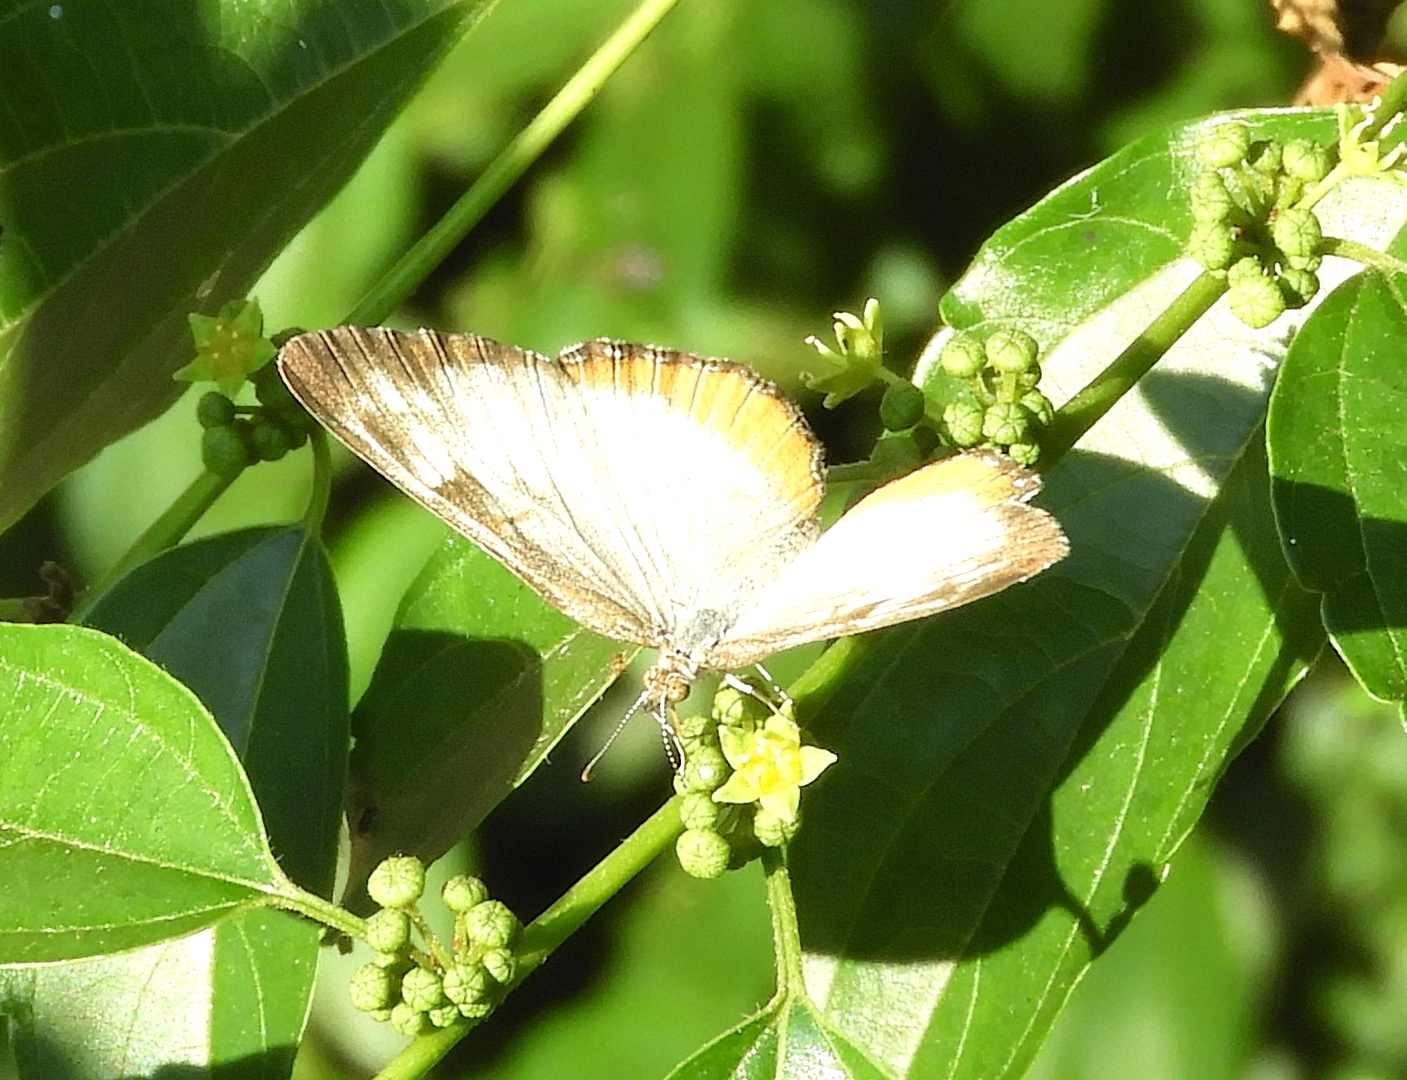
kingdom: Animalia
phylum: Arthropoda
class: Insecta
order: Lepidoptera
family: Nymphalidae
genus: Mestra
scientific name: Mestra amymone
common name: Common mestra
